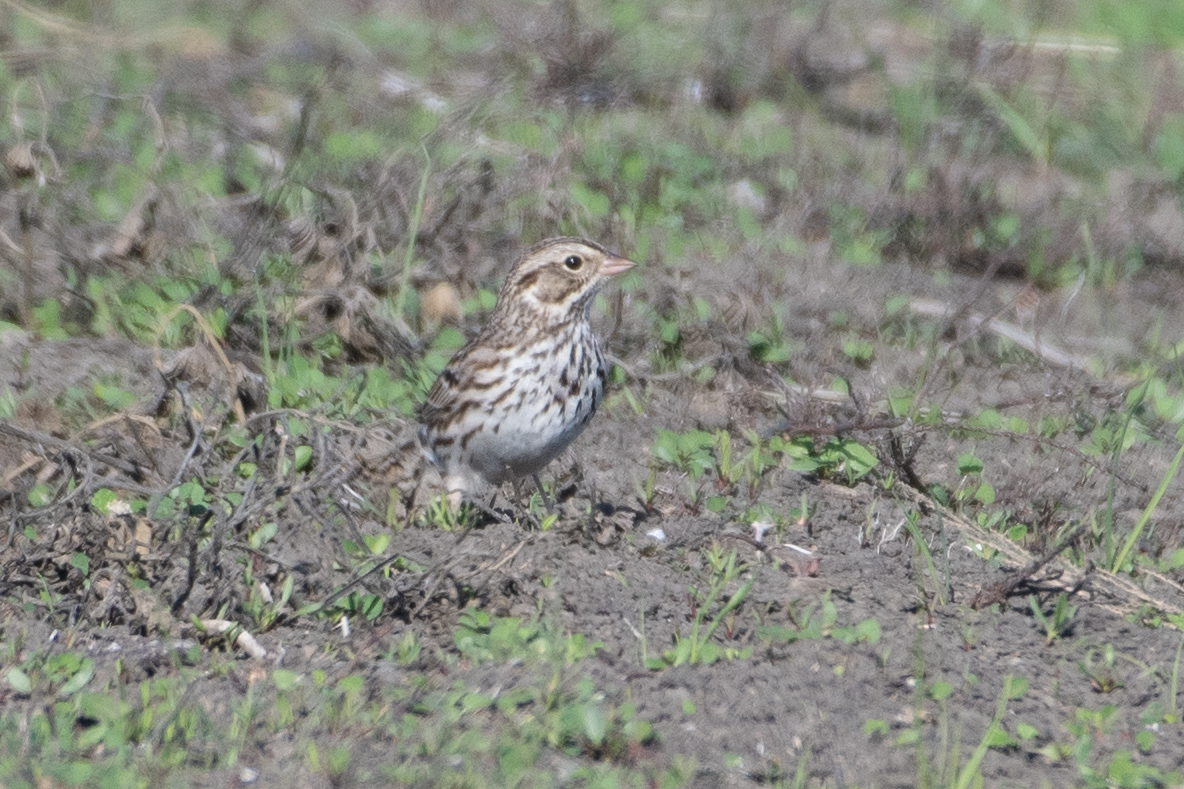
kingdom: Animalia
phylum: Chordata
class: Aves
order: Passeriformes
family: Passerellidae
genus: Passerculus
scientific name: Passerculus sandwichensis
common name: Savannah sparrow
